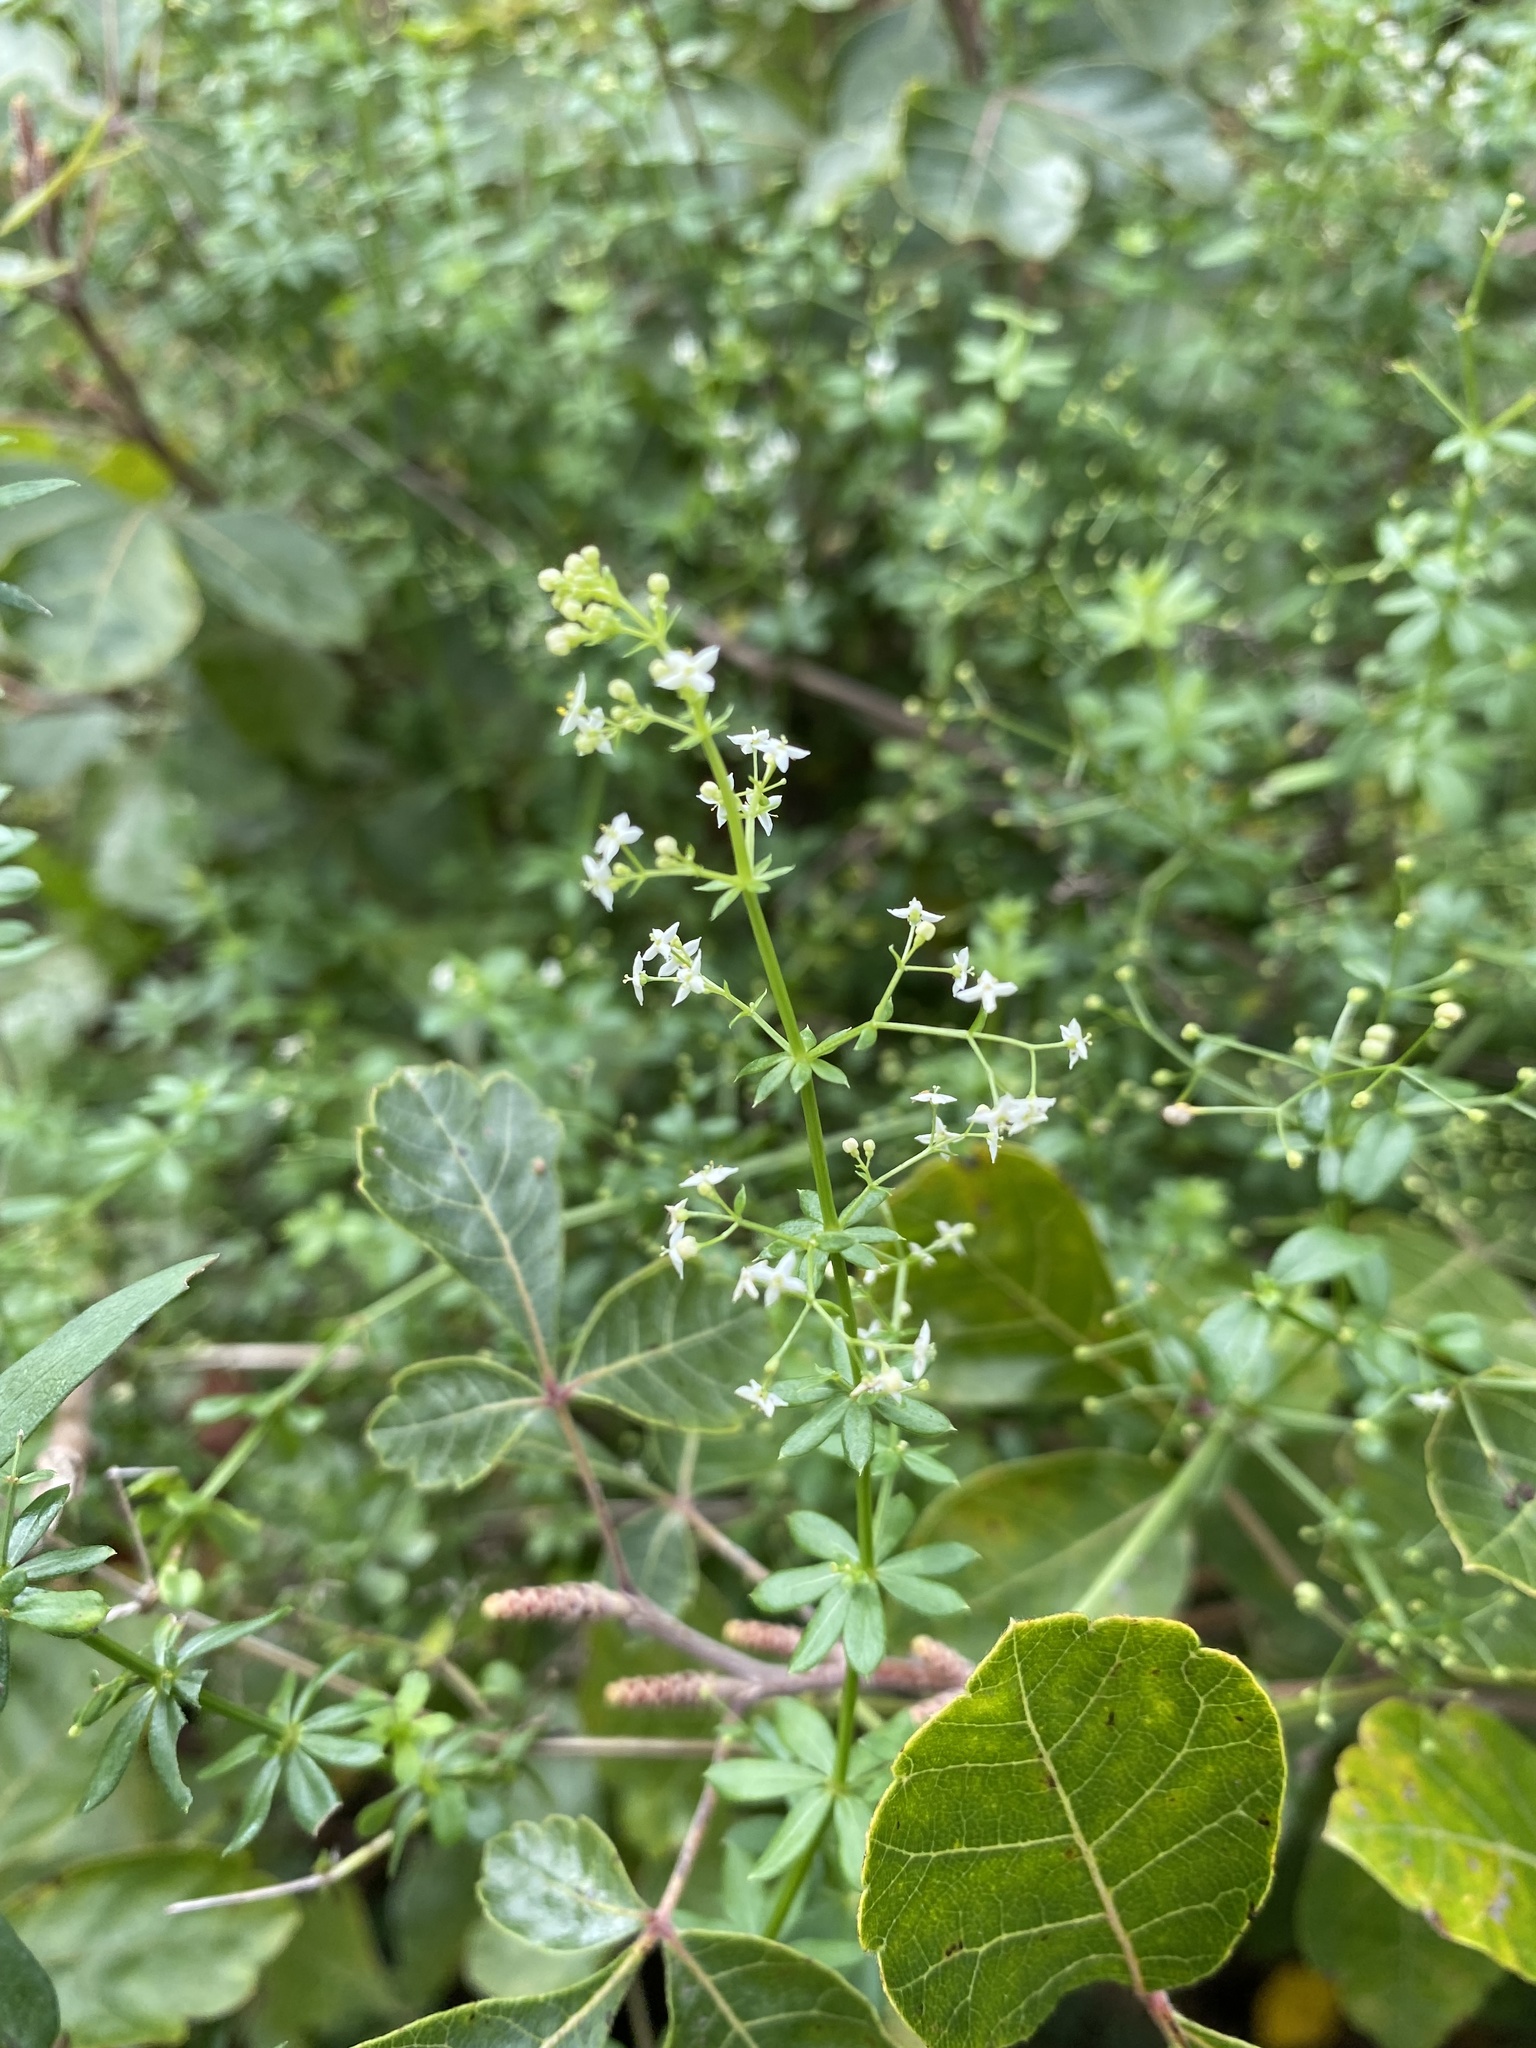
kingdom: Plantae
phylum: Tracheophyta
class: Magnoliopsida
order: Gentianales
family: Rubiaceae
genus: Galium
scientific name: Galium
